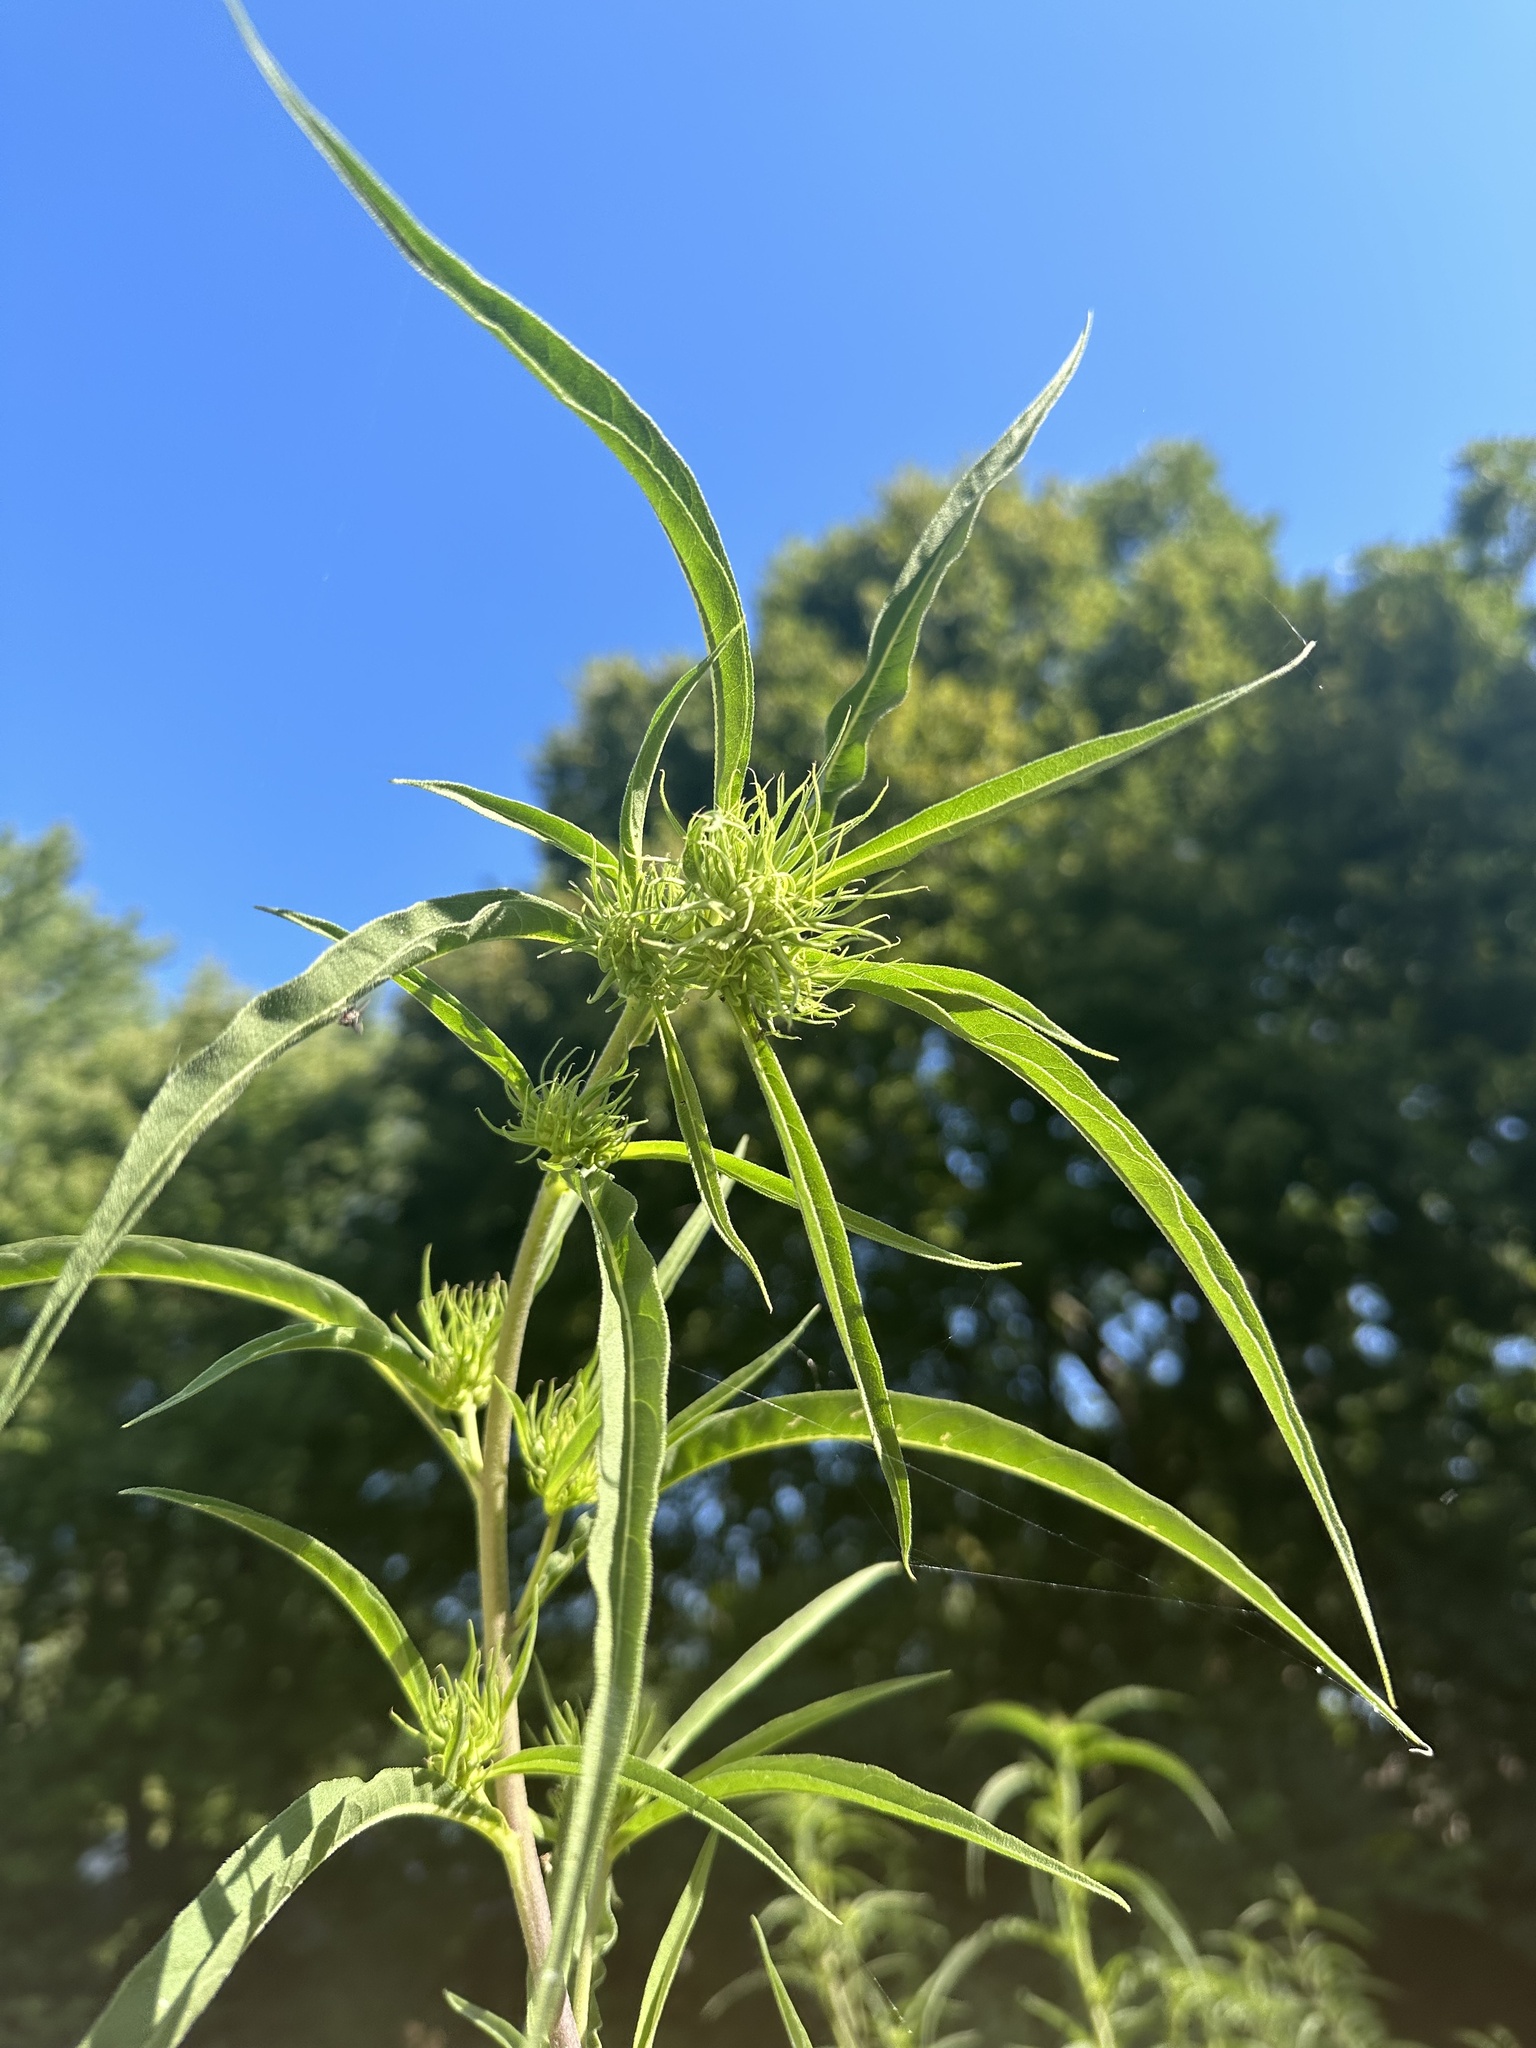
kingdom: Plantae
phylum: Tracheophyta
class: Magnoliopsida
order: Asterales
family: Asteraceae
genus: Helianthus
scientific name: Helianthus maximiliani
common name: Maximilian's sunflower
